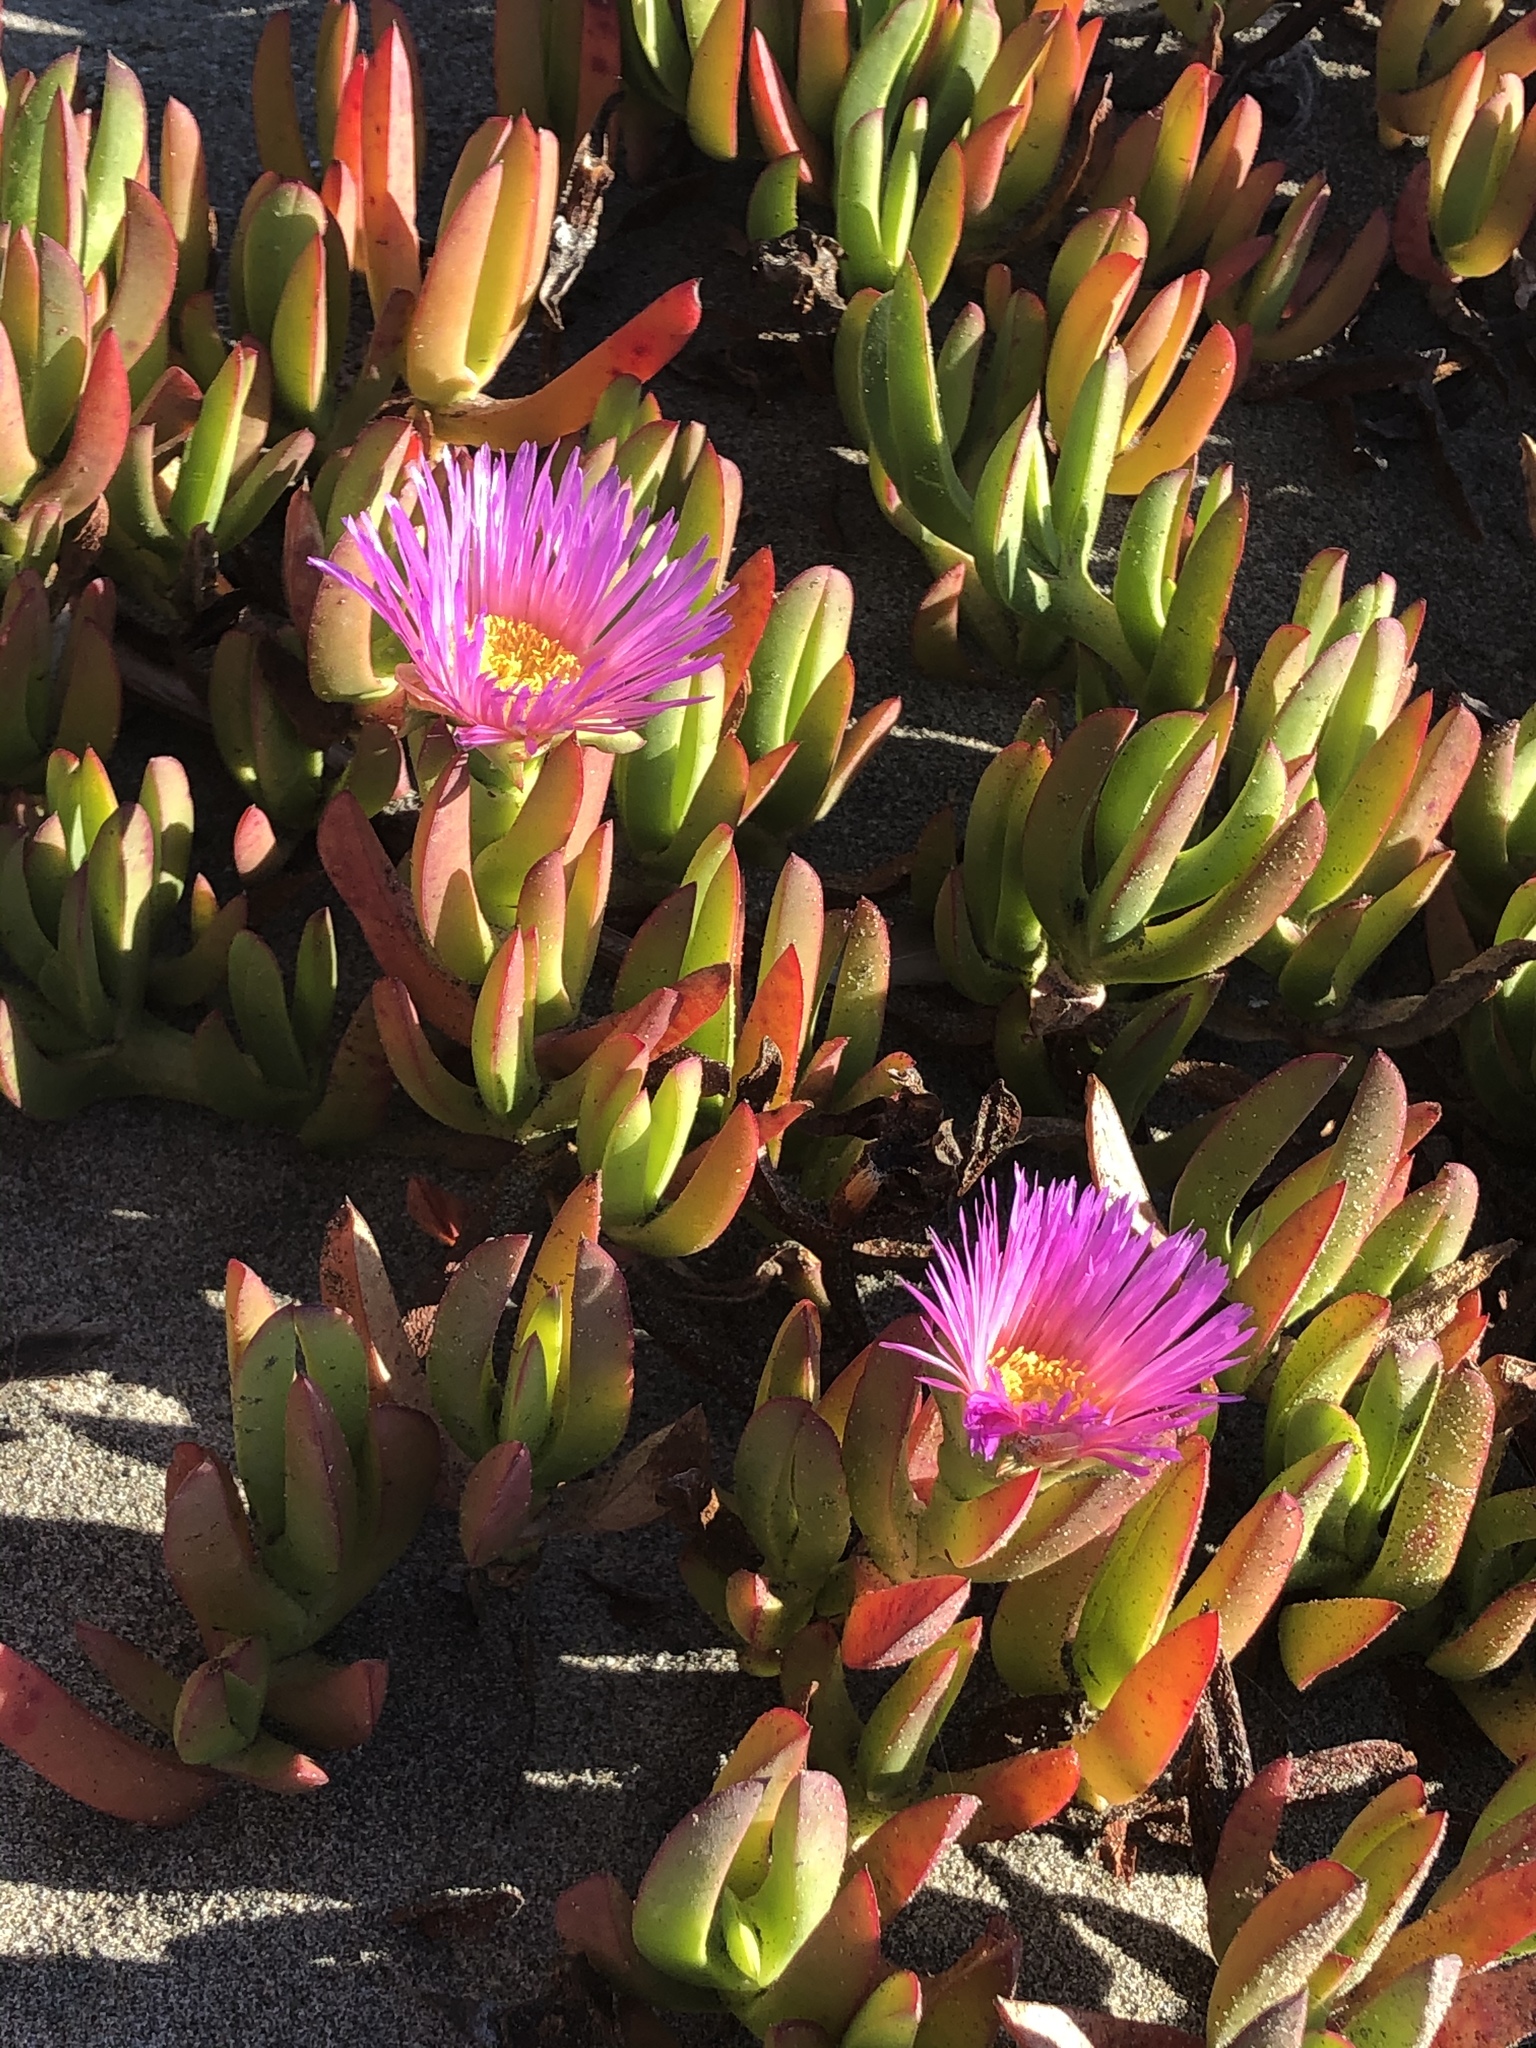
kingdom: Plantae
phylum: Tracheophyta
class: Magnoliopsida
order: Caryophyllales
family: Aizoaceae
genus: Carpobrotus
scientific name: Carpobrotus chilensis
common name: Sea fig
